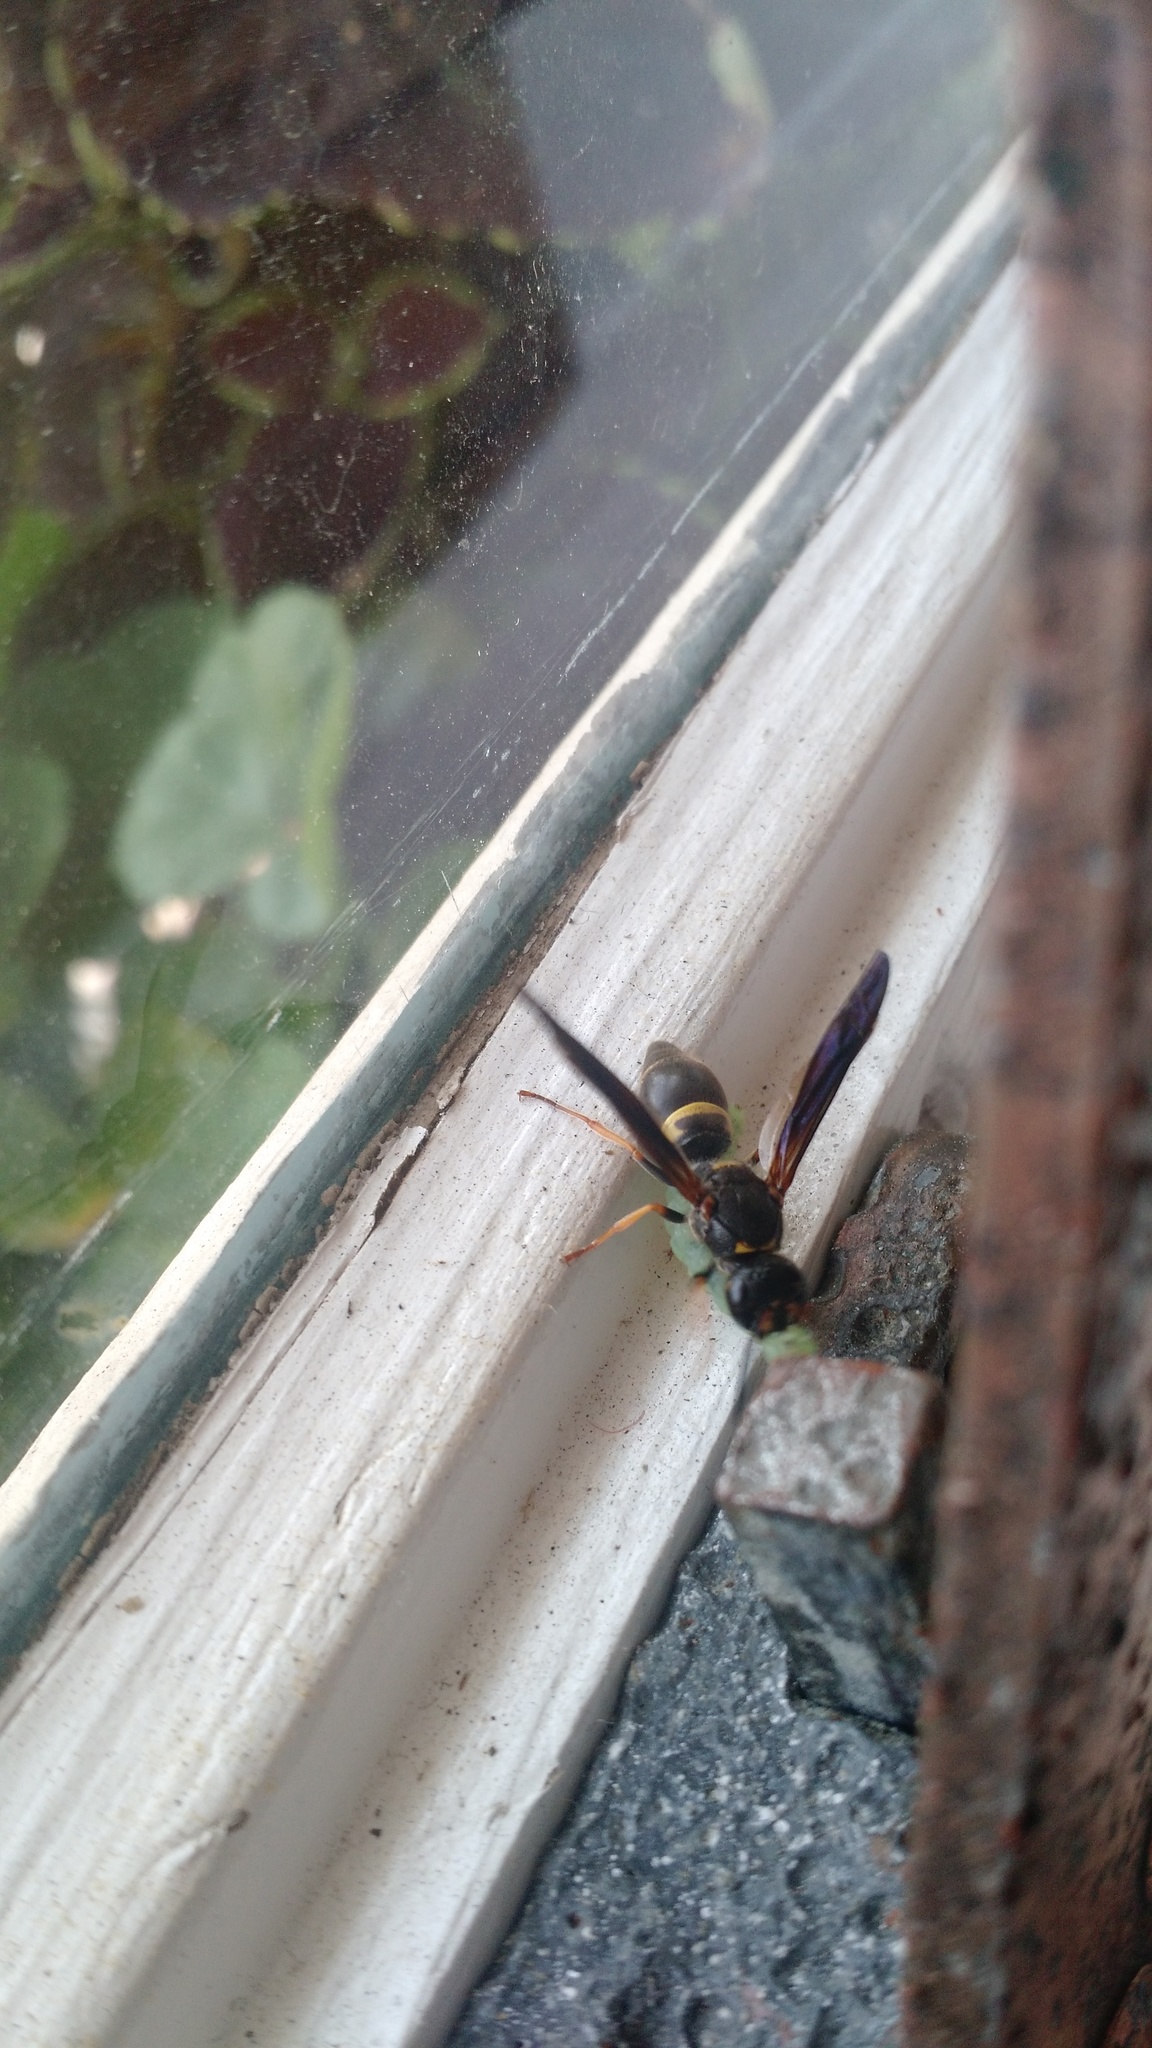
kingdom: Animalia
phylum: Arthropoda
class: Insecta
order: Hymenoptera
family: Vespidae
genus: Ancistrocerus
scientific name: Ancistrocerus unifasciatus
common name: One-banded mason wasp
